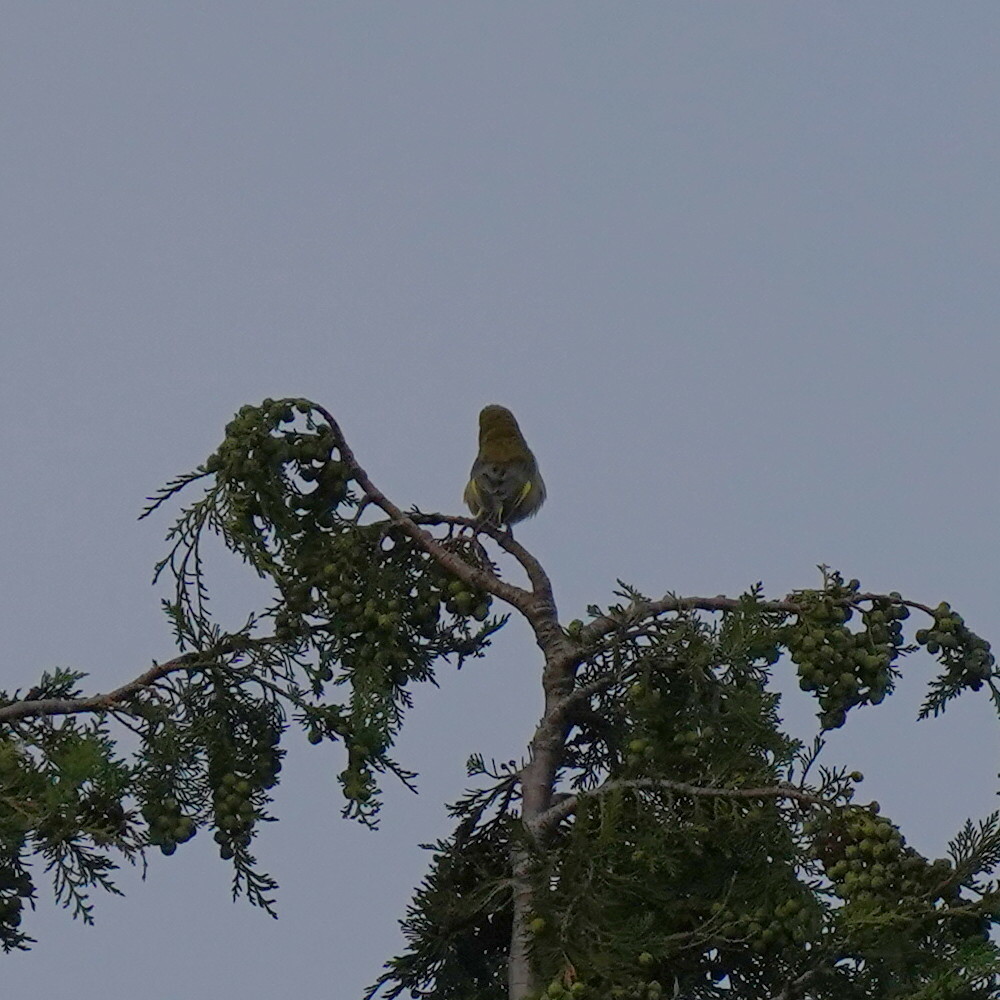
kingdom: Plantae
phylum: Tracheophyta
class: Liliopsida
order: Poales
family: Poaceae
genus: Chloris
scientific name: Chloris chloris
